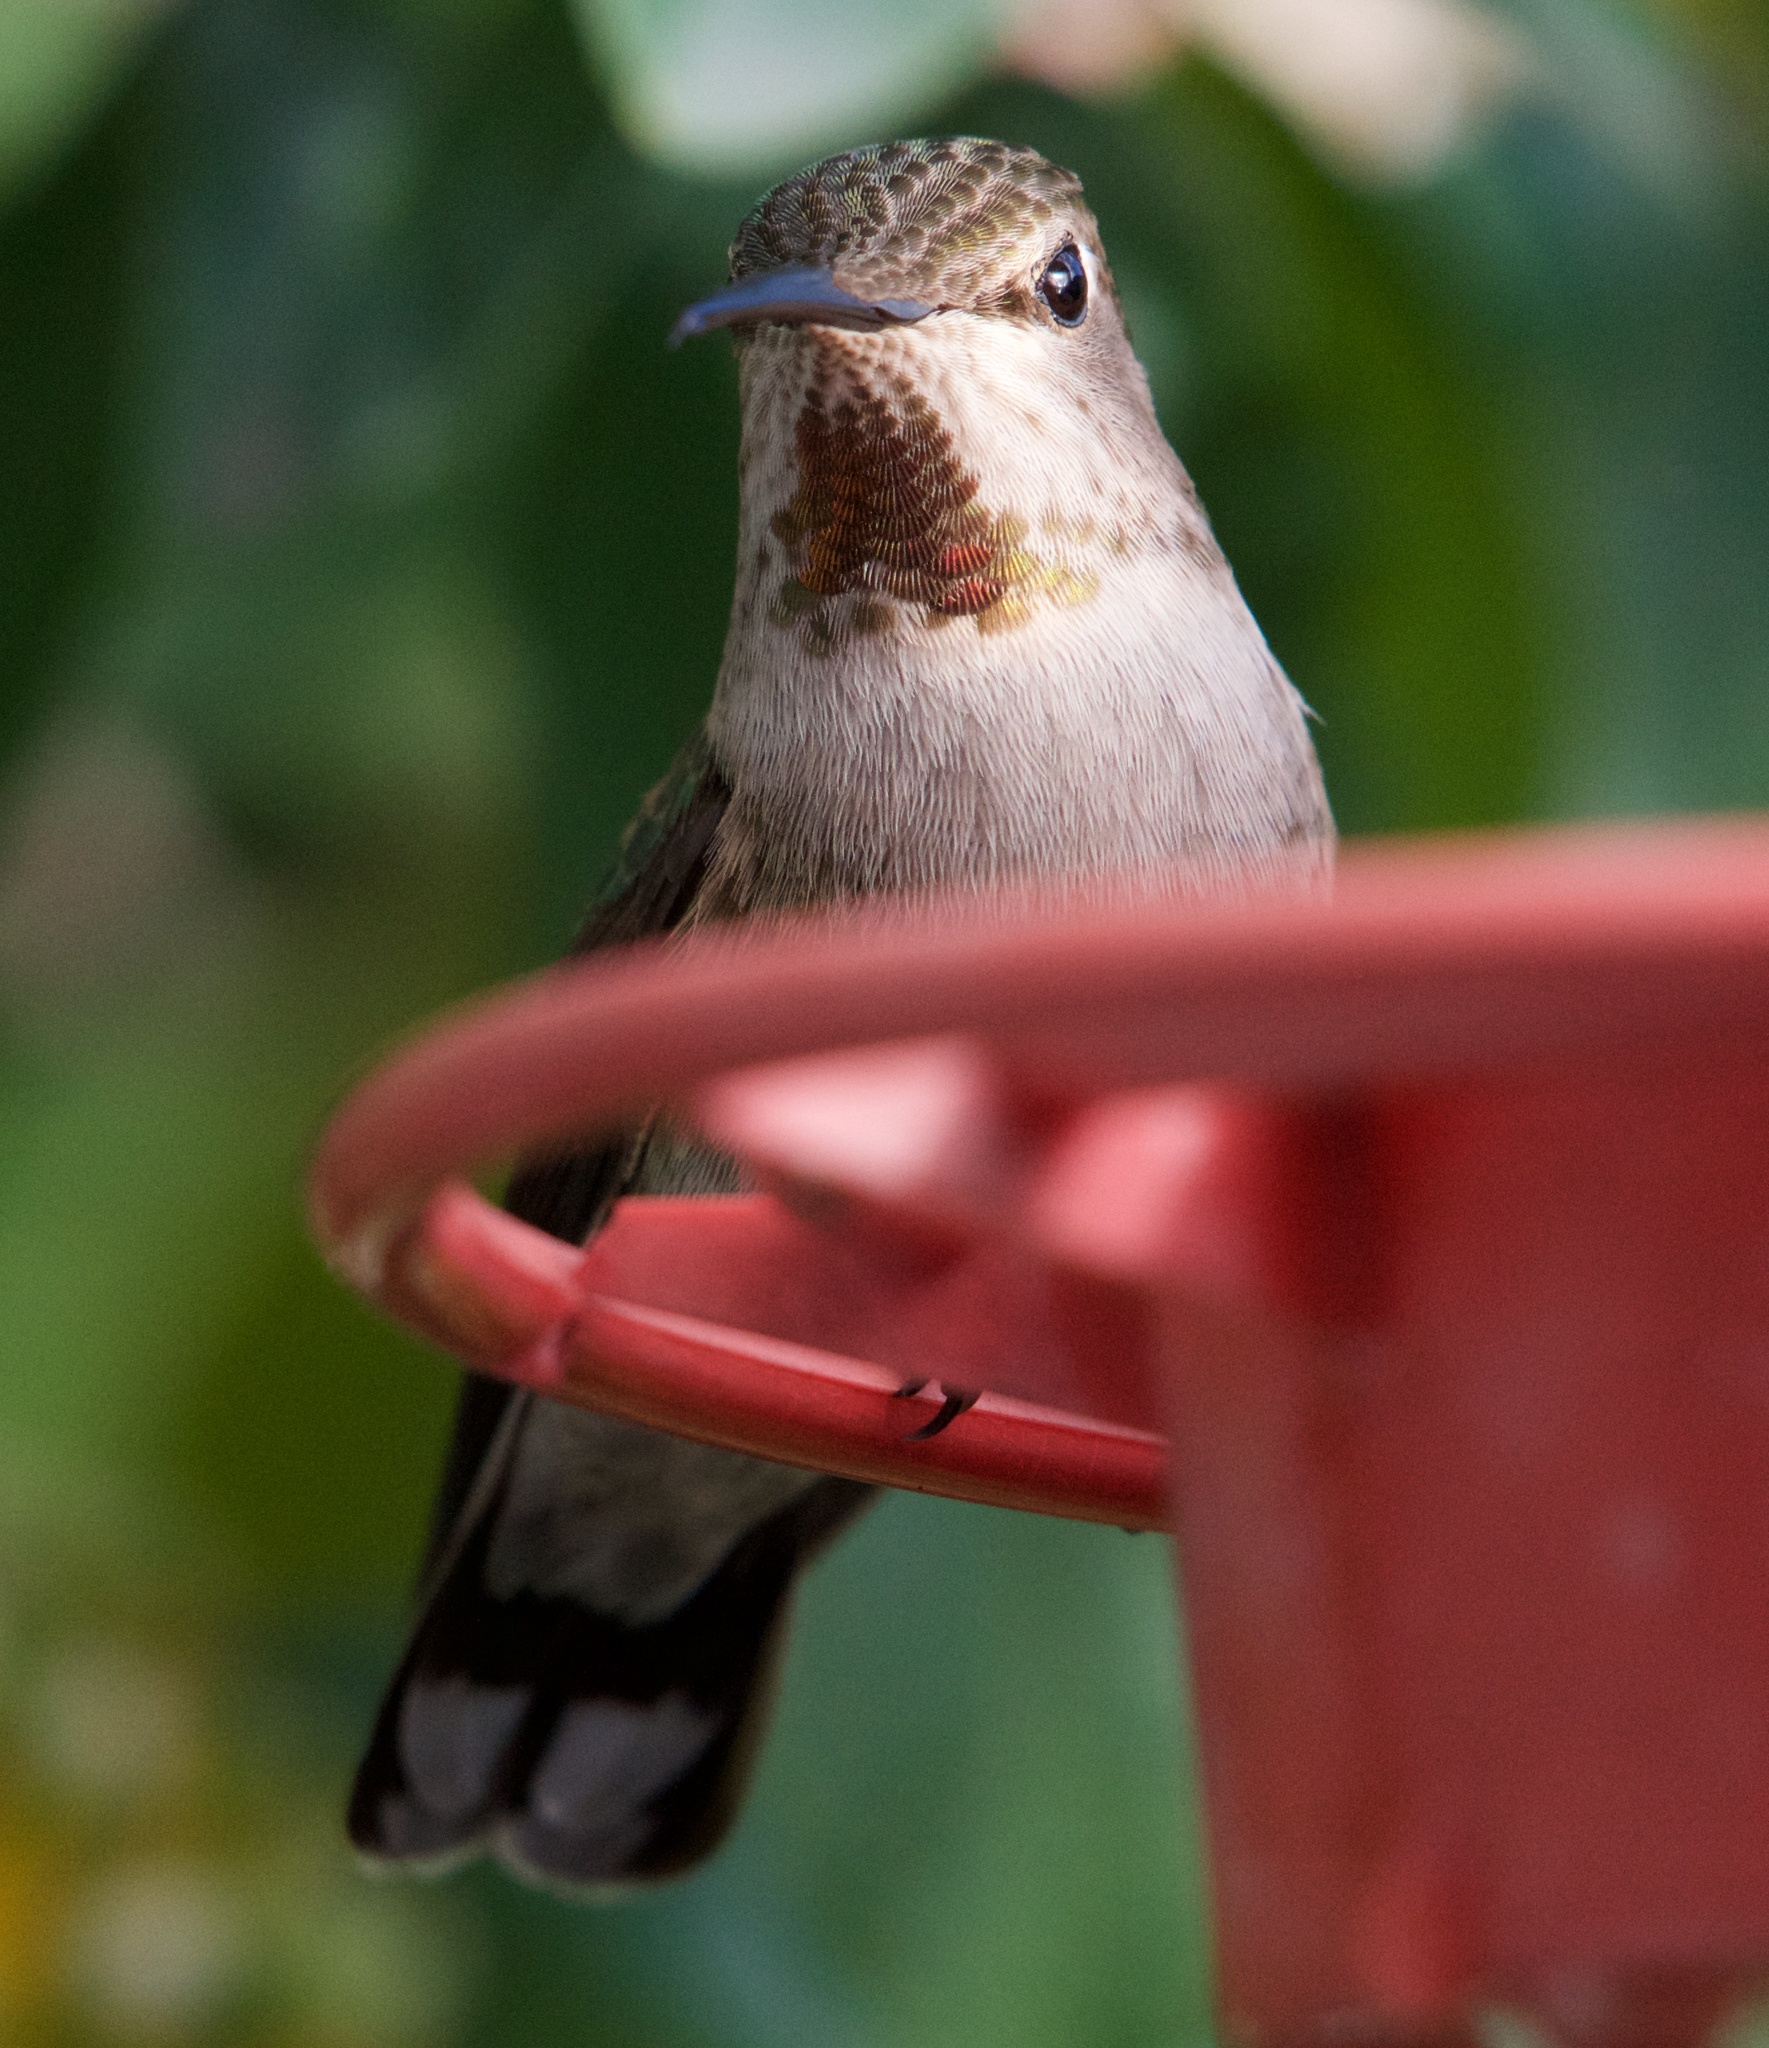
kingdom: Animalia
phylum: Chordata
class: Aves
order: Apodiformes
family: Trochilidae
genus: Calypte
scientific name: Calypte anna
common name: Anna's hummingbird
